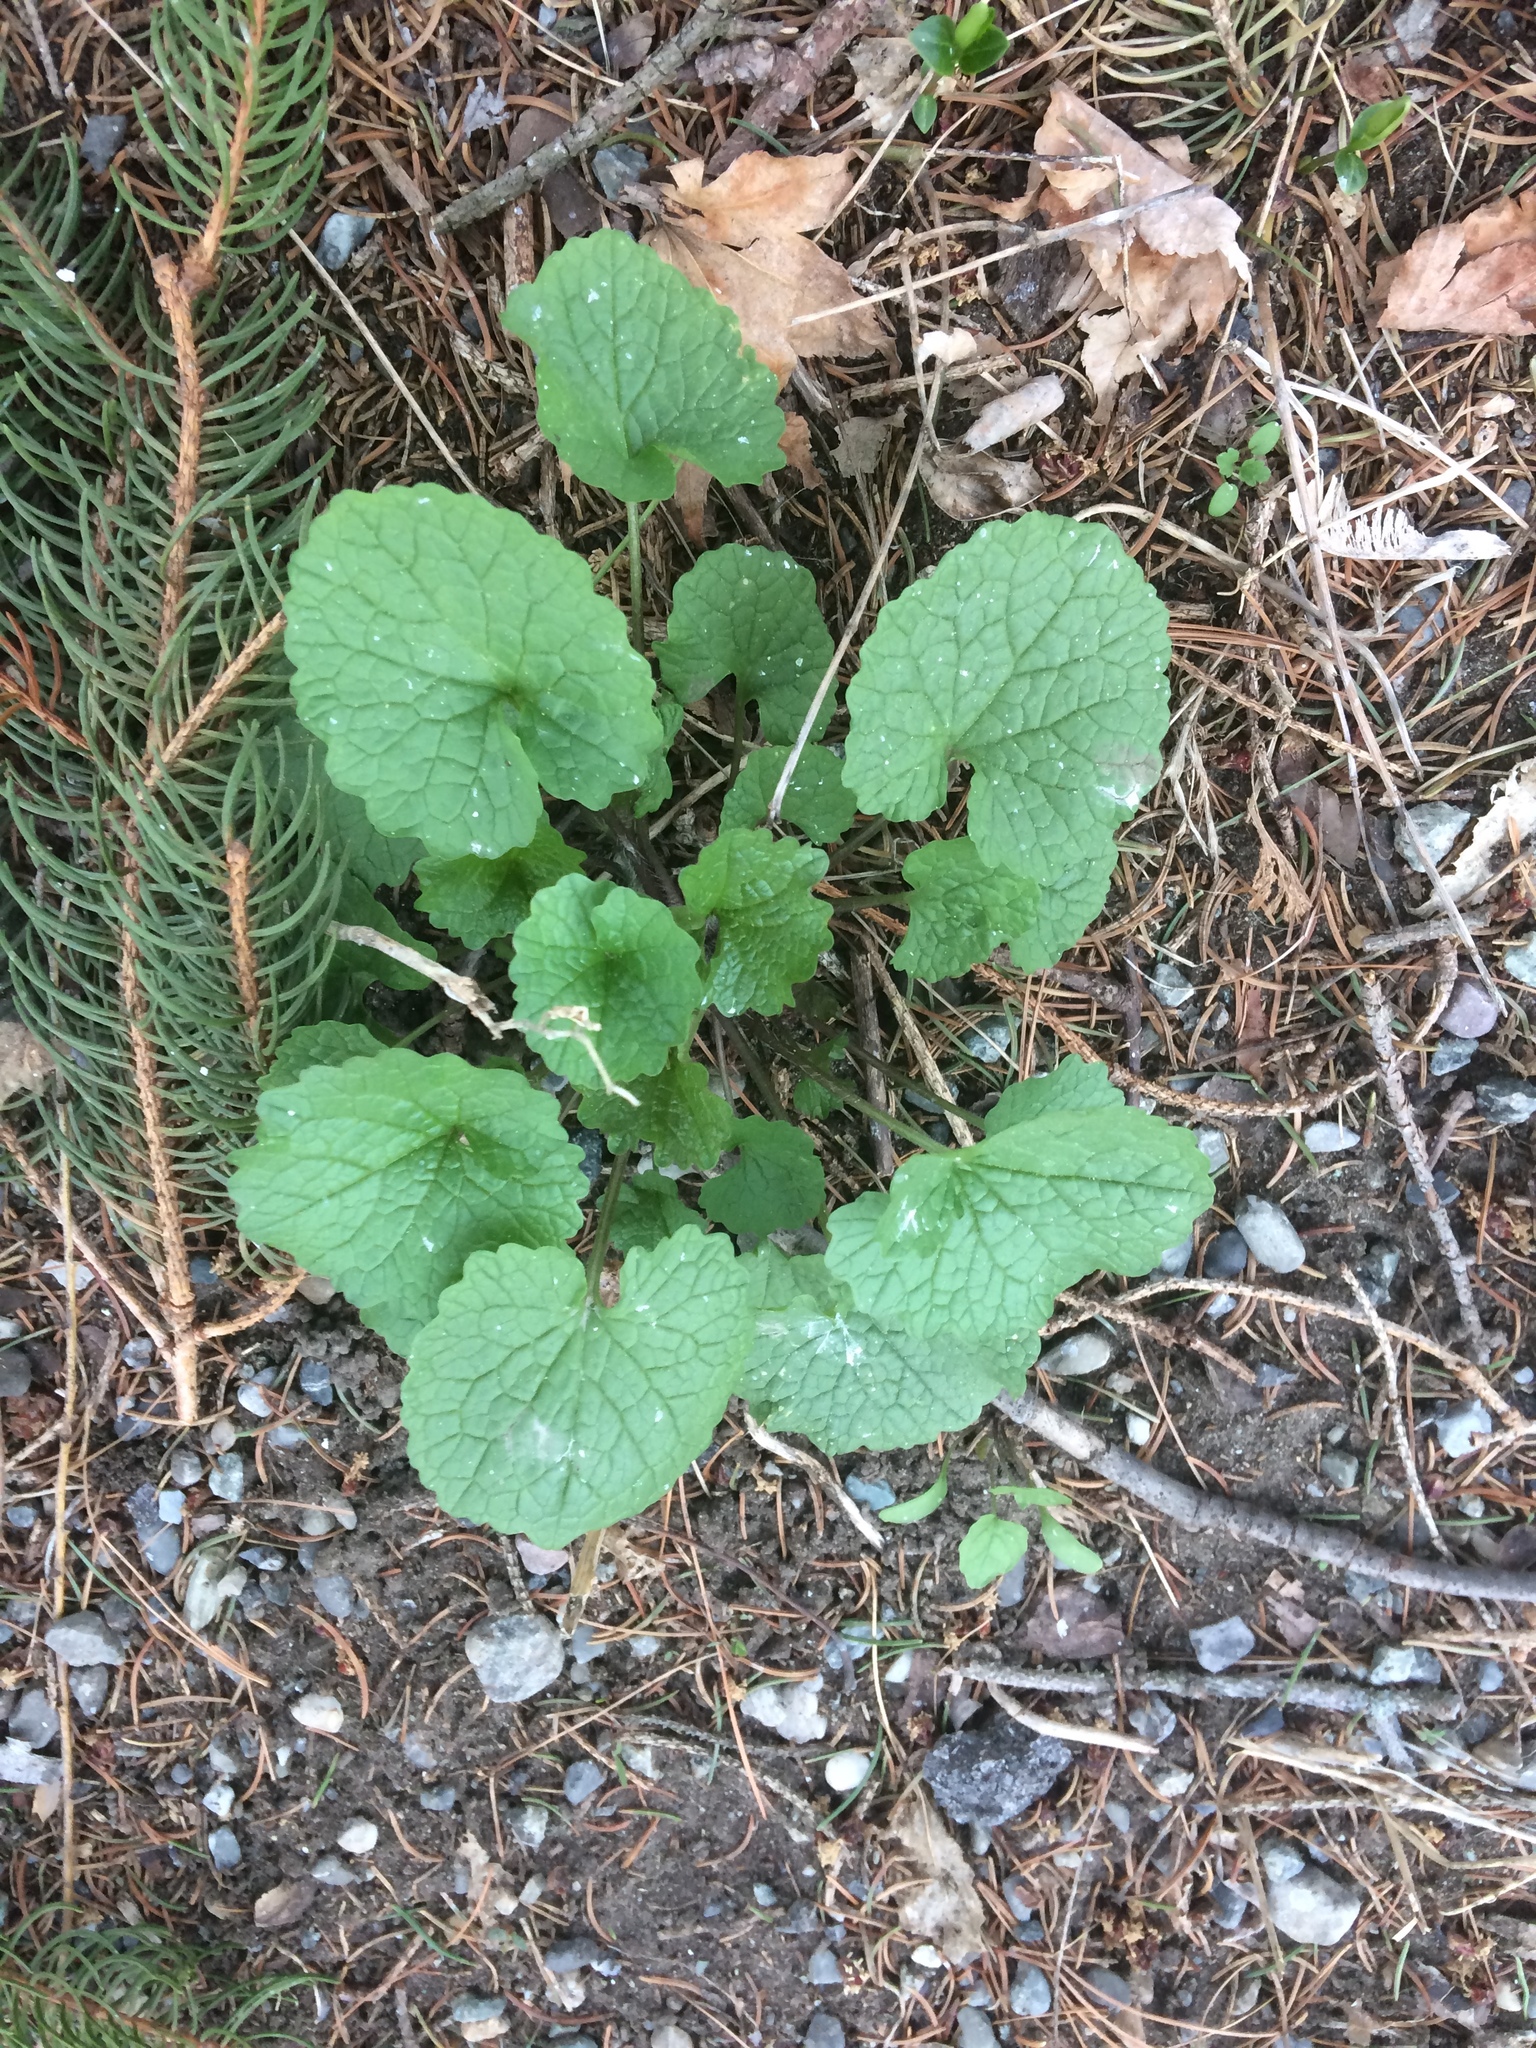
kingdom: Plantae
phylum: Tracheophyta
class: Magnoliopsida
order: Brassicales
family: Brassicaceae
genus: Alliaria
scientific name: Alliaria petiolata
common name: Garlic mustard
